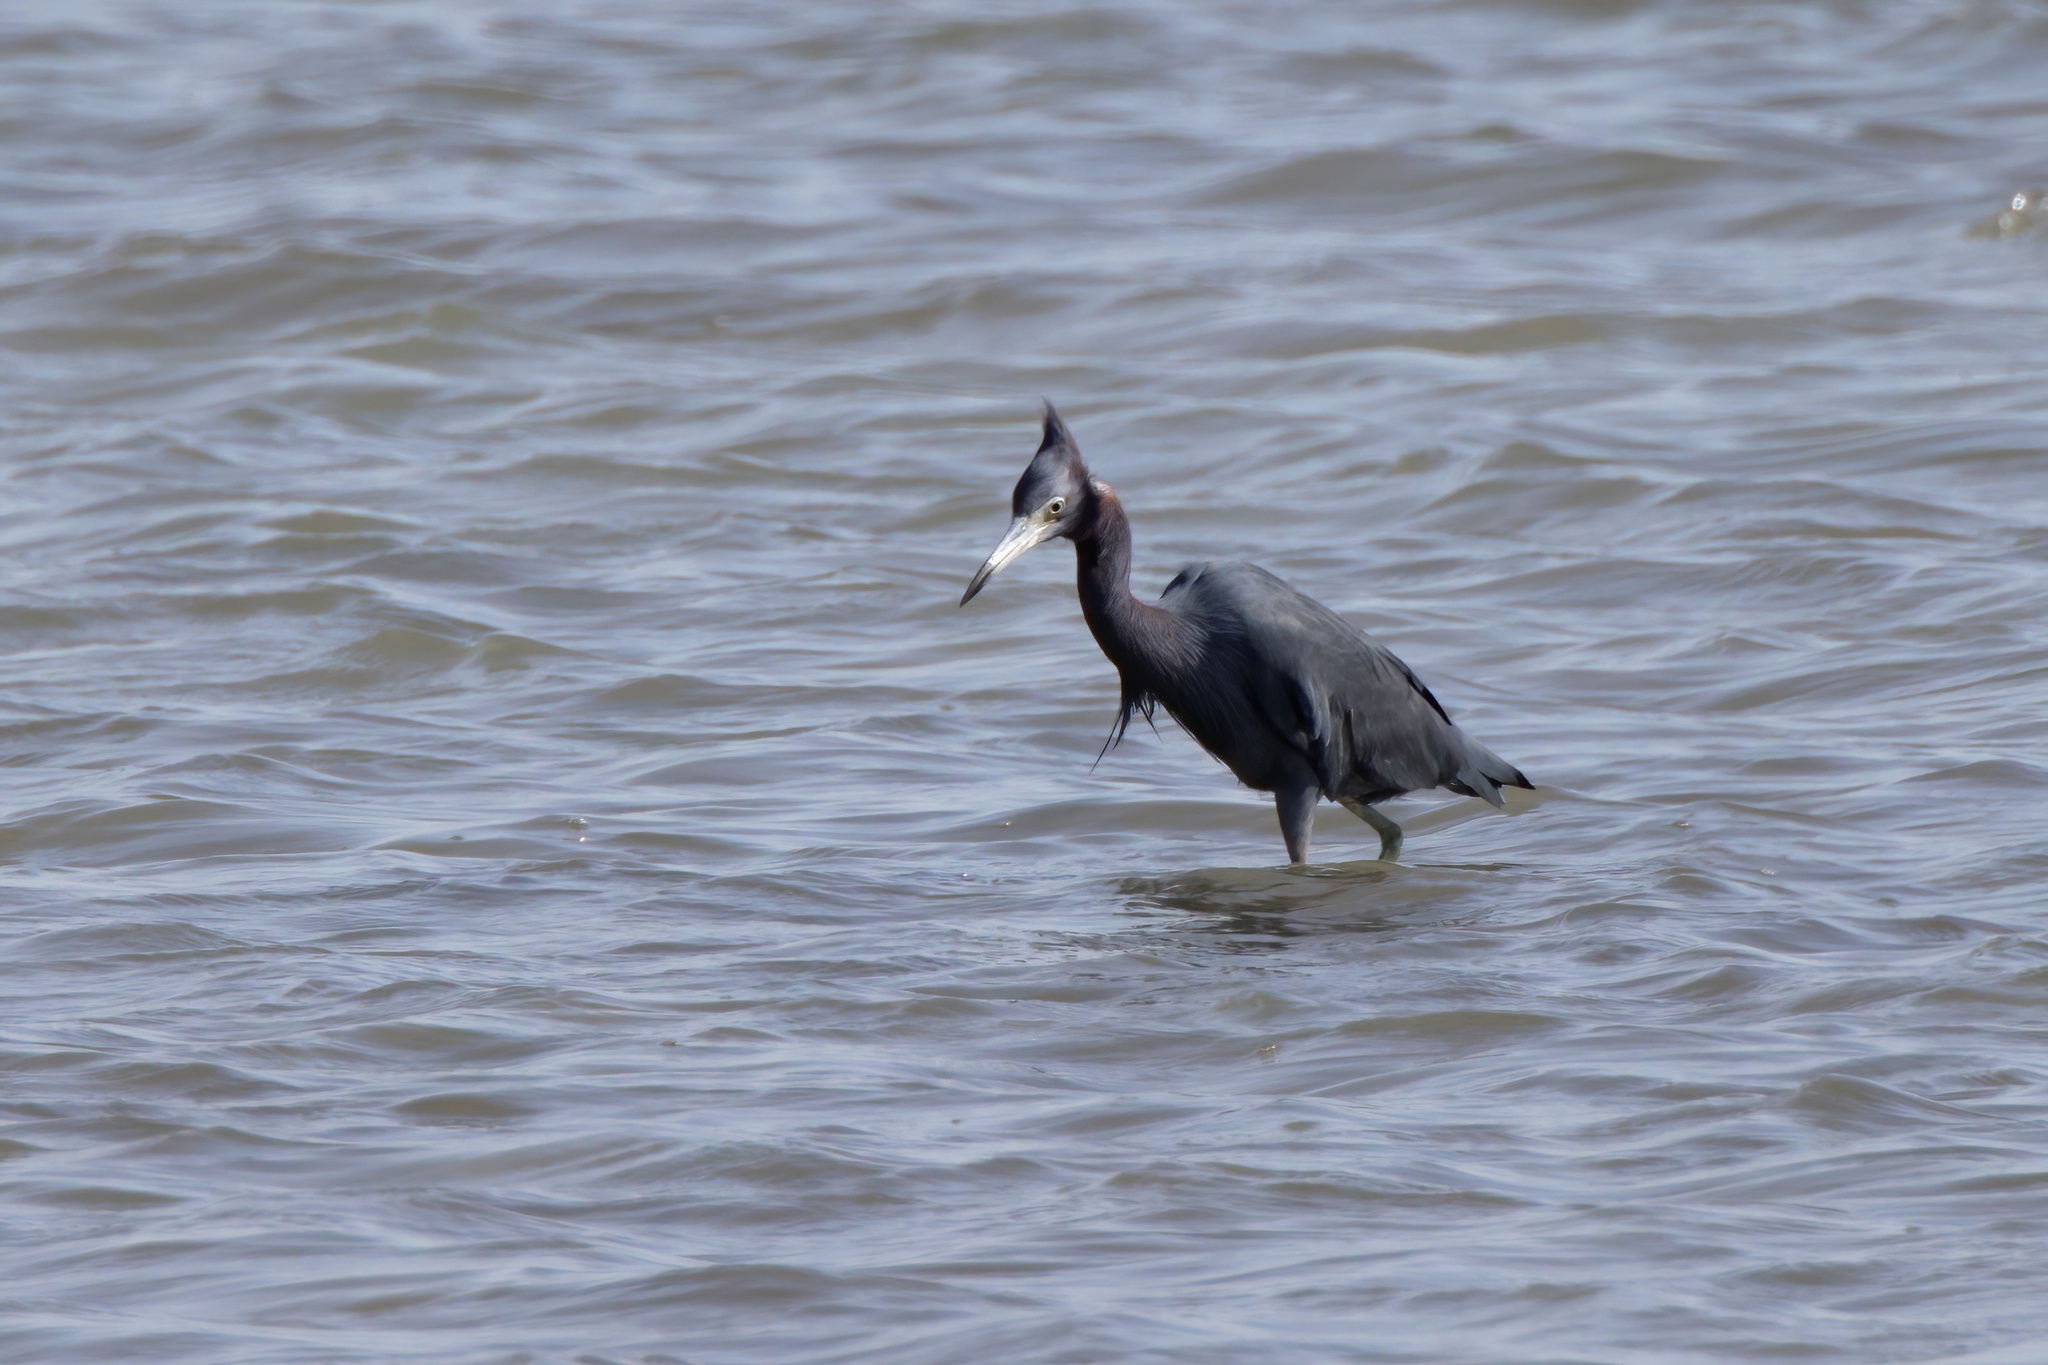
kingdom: Animalia
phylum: Chordata
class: Aves
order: Pelecaniformes
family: Ardeidae
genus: Egretta
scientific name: Egretta caerulea
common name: Little blue heron
